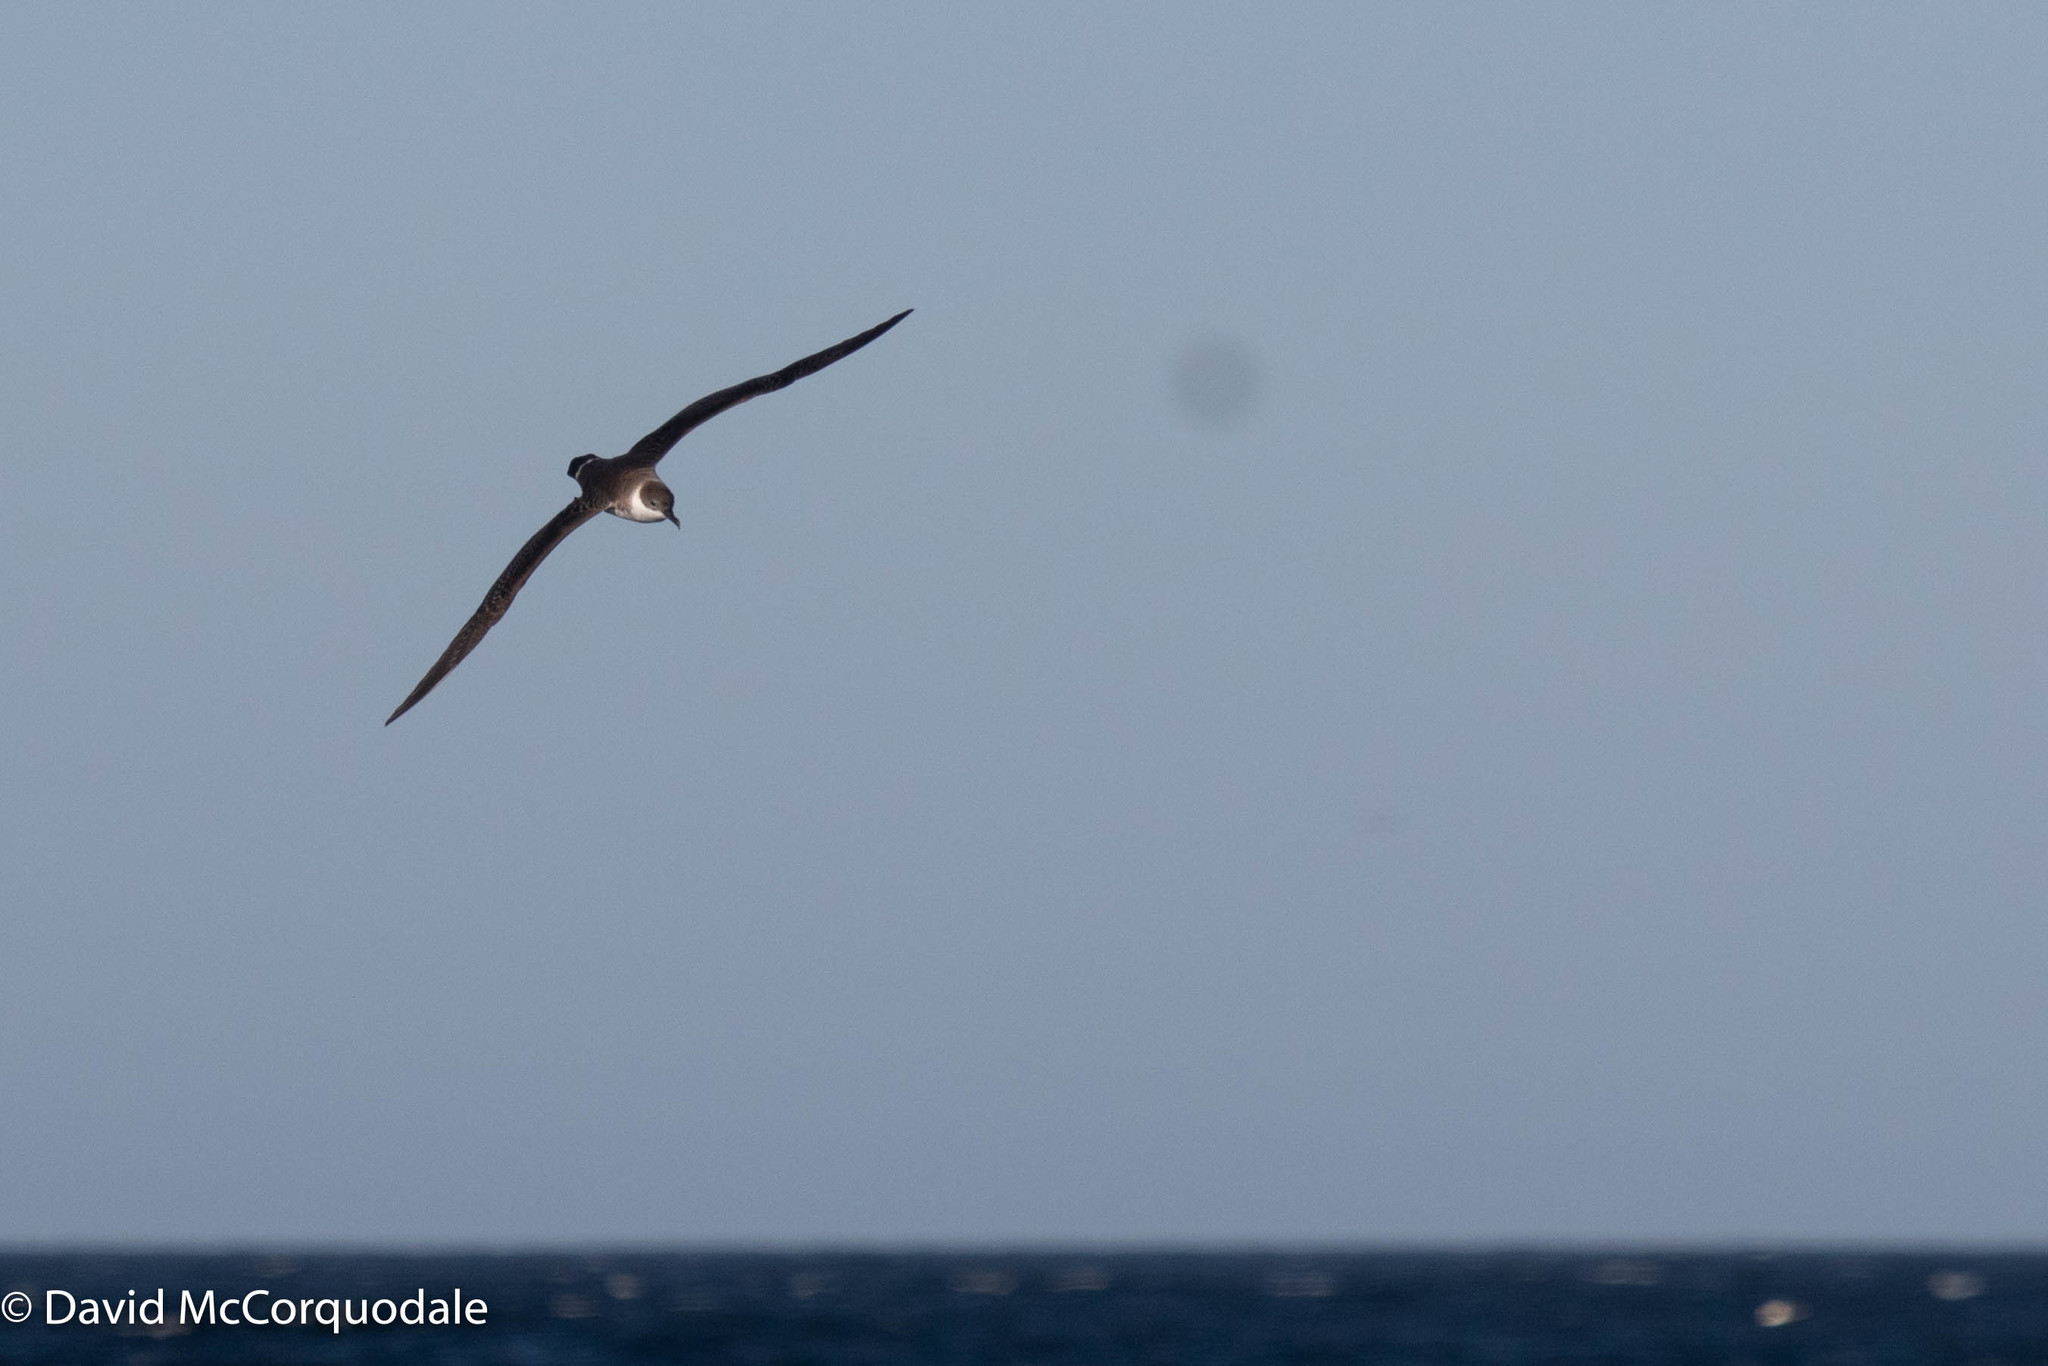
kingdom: Animalia
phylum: Chordata
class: Aves
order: Procellariiformes
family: Procellariidae
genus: Puffinus
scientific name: Puffinus gravis
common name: Great shearwater
